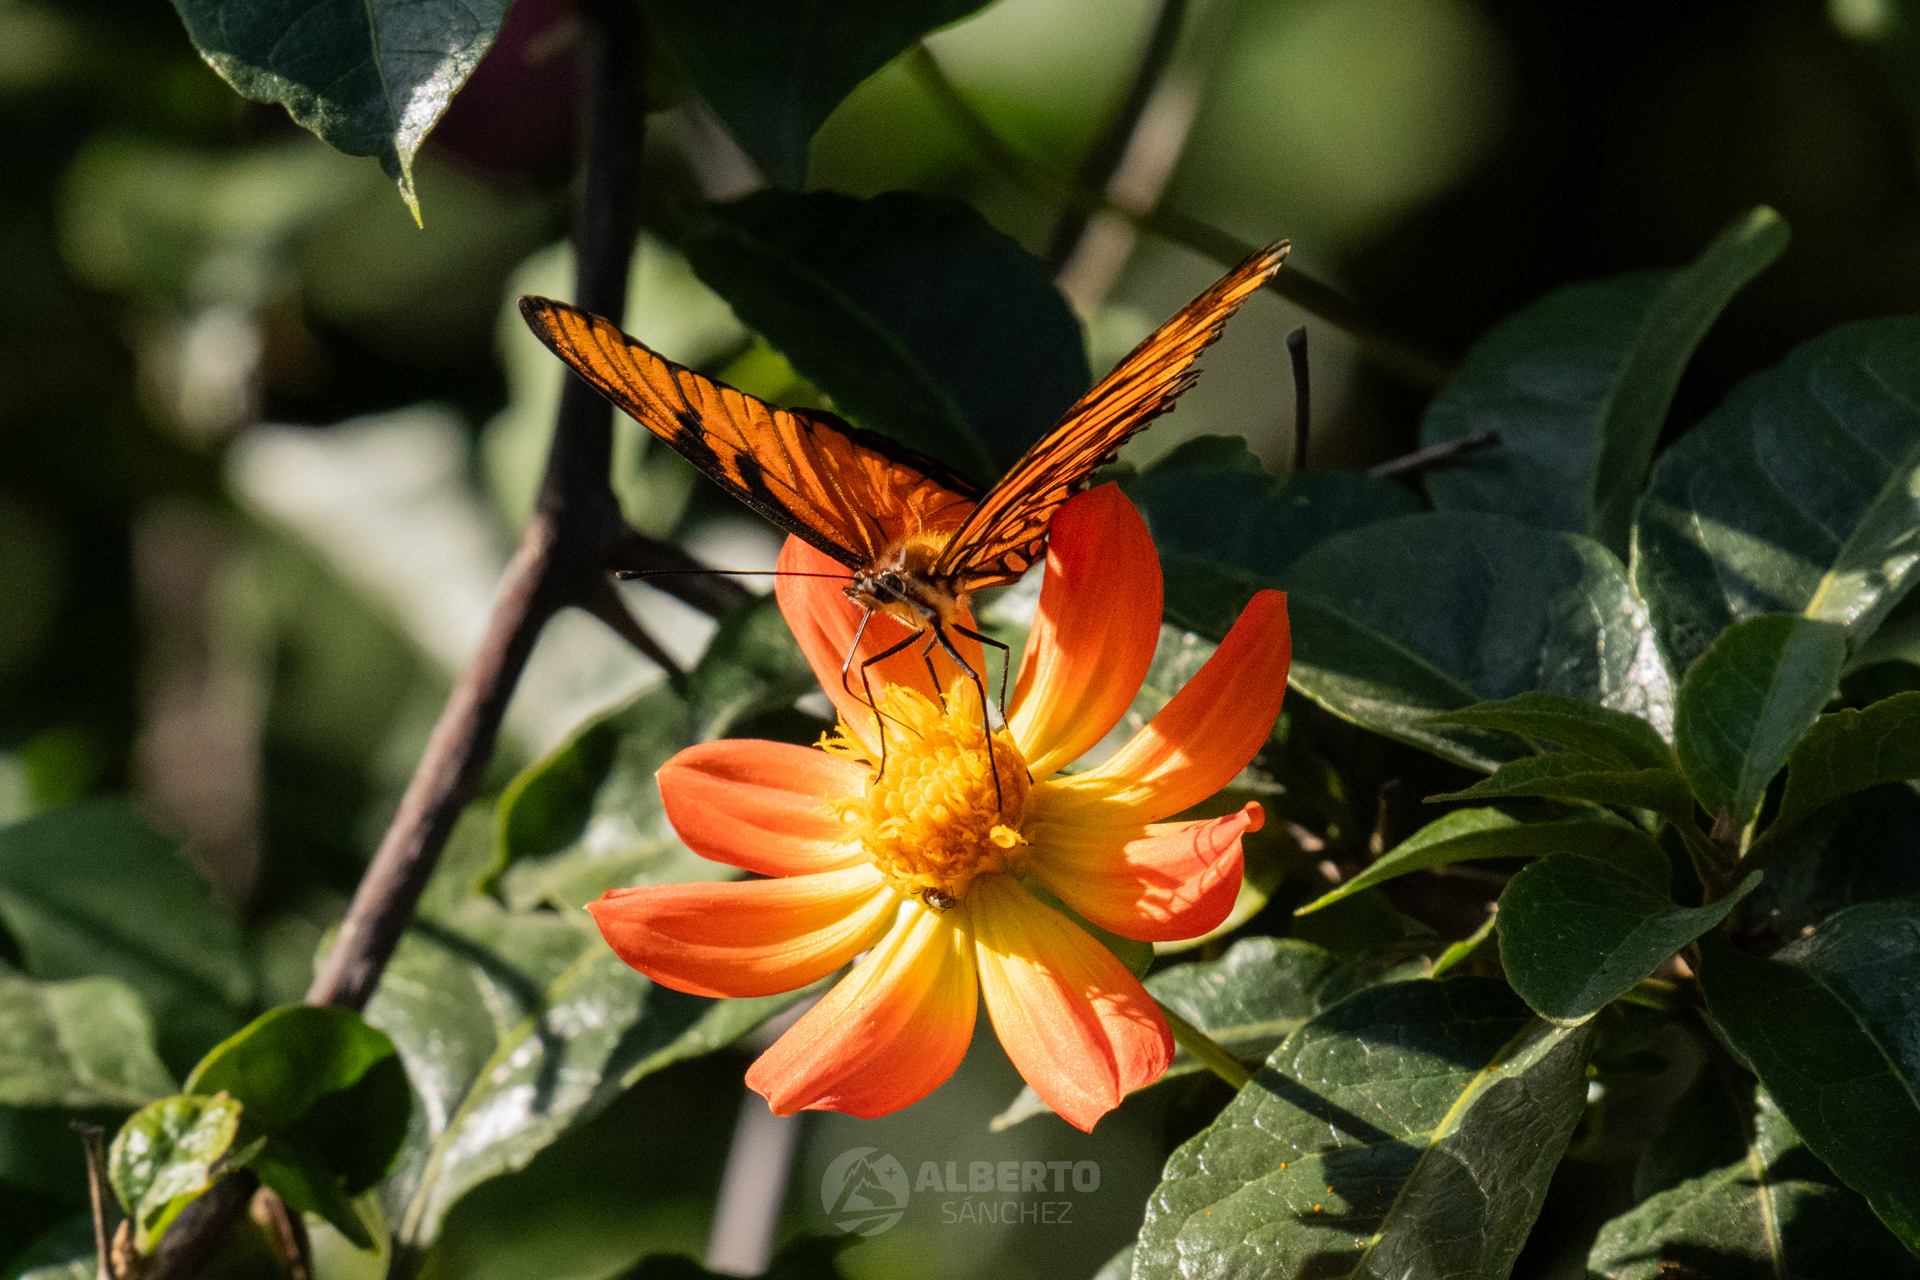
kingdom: Animalia
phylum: Arthropoda
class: Insecta
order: Lepidoptera
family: Nymphalidae
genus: Dione
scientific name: Dione juno
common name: Juno silverspot
